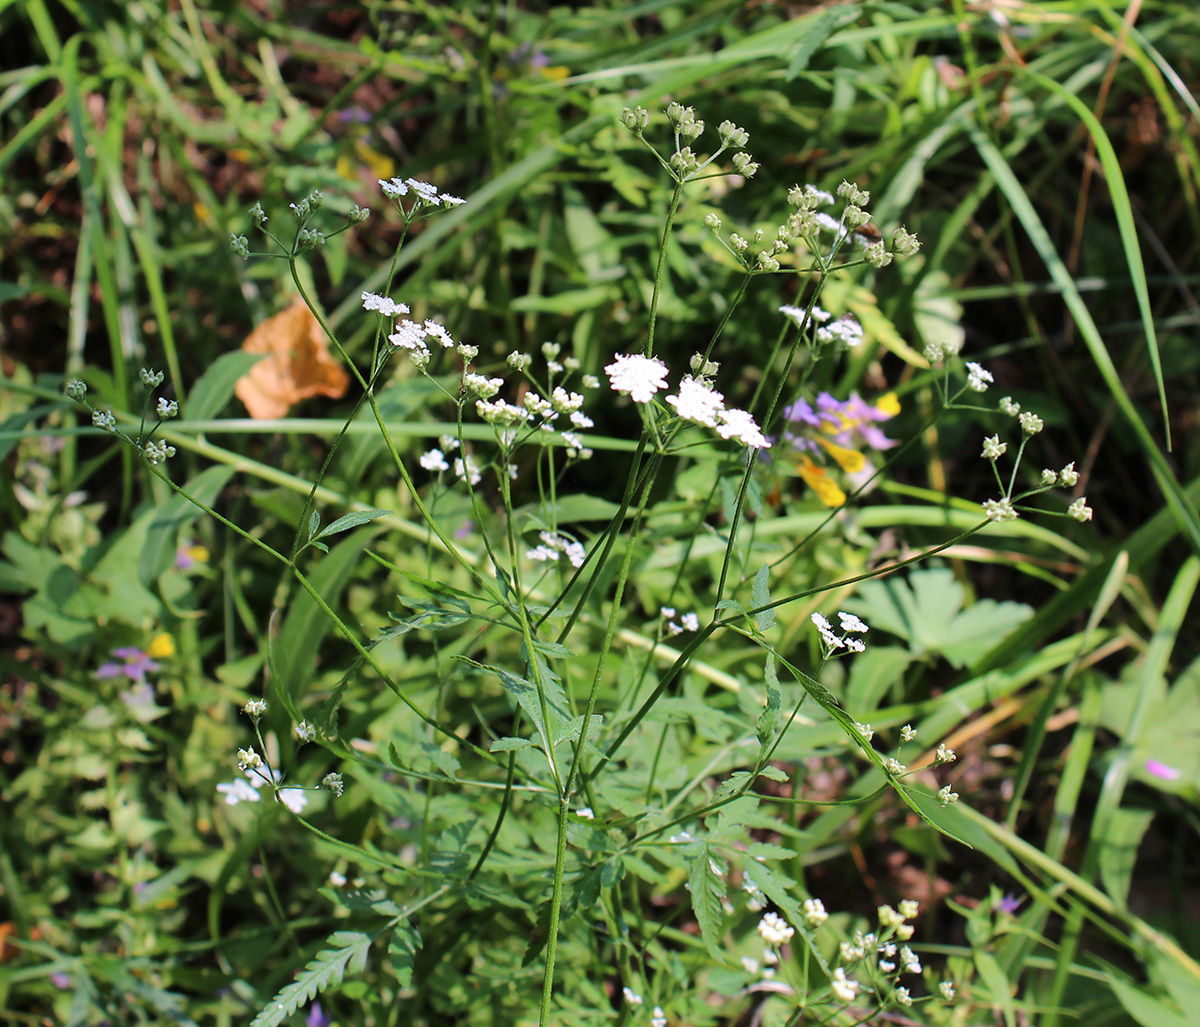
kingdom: Plantae
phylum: Tracheophyta
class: Magnoliopsida
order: Apiales
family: Apiaceae
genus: Torilis
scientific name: Torilis japonica
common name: Upright hedge-parsley
